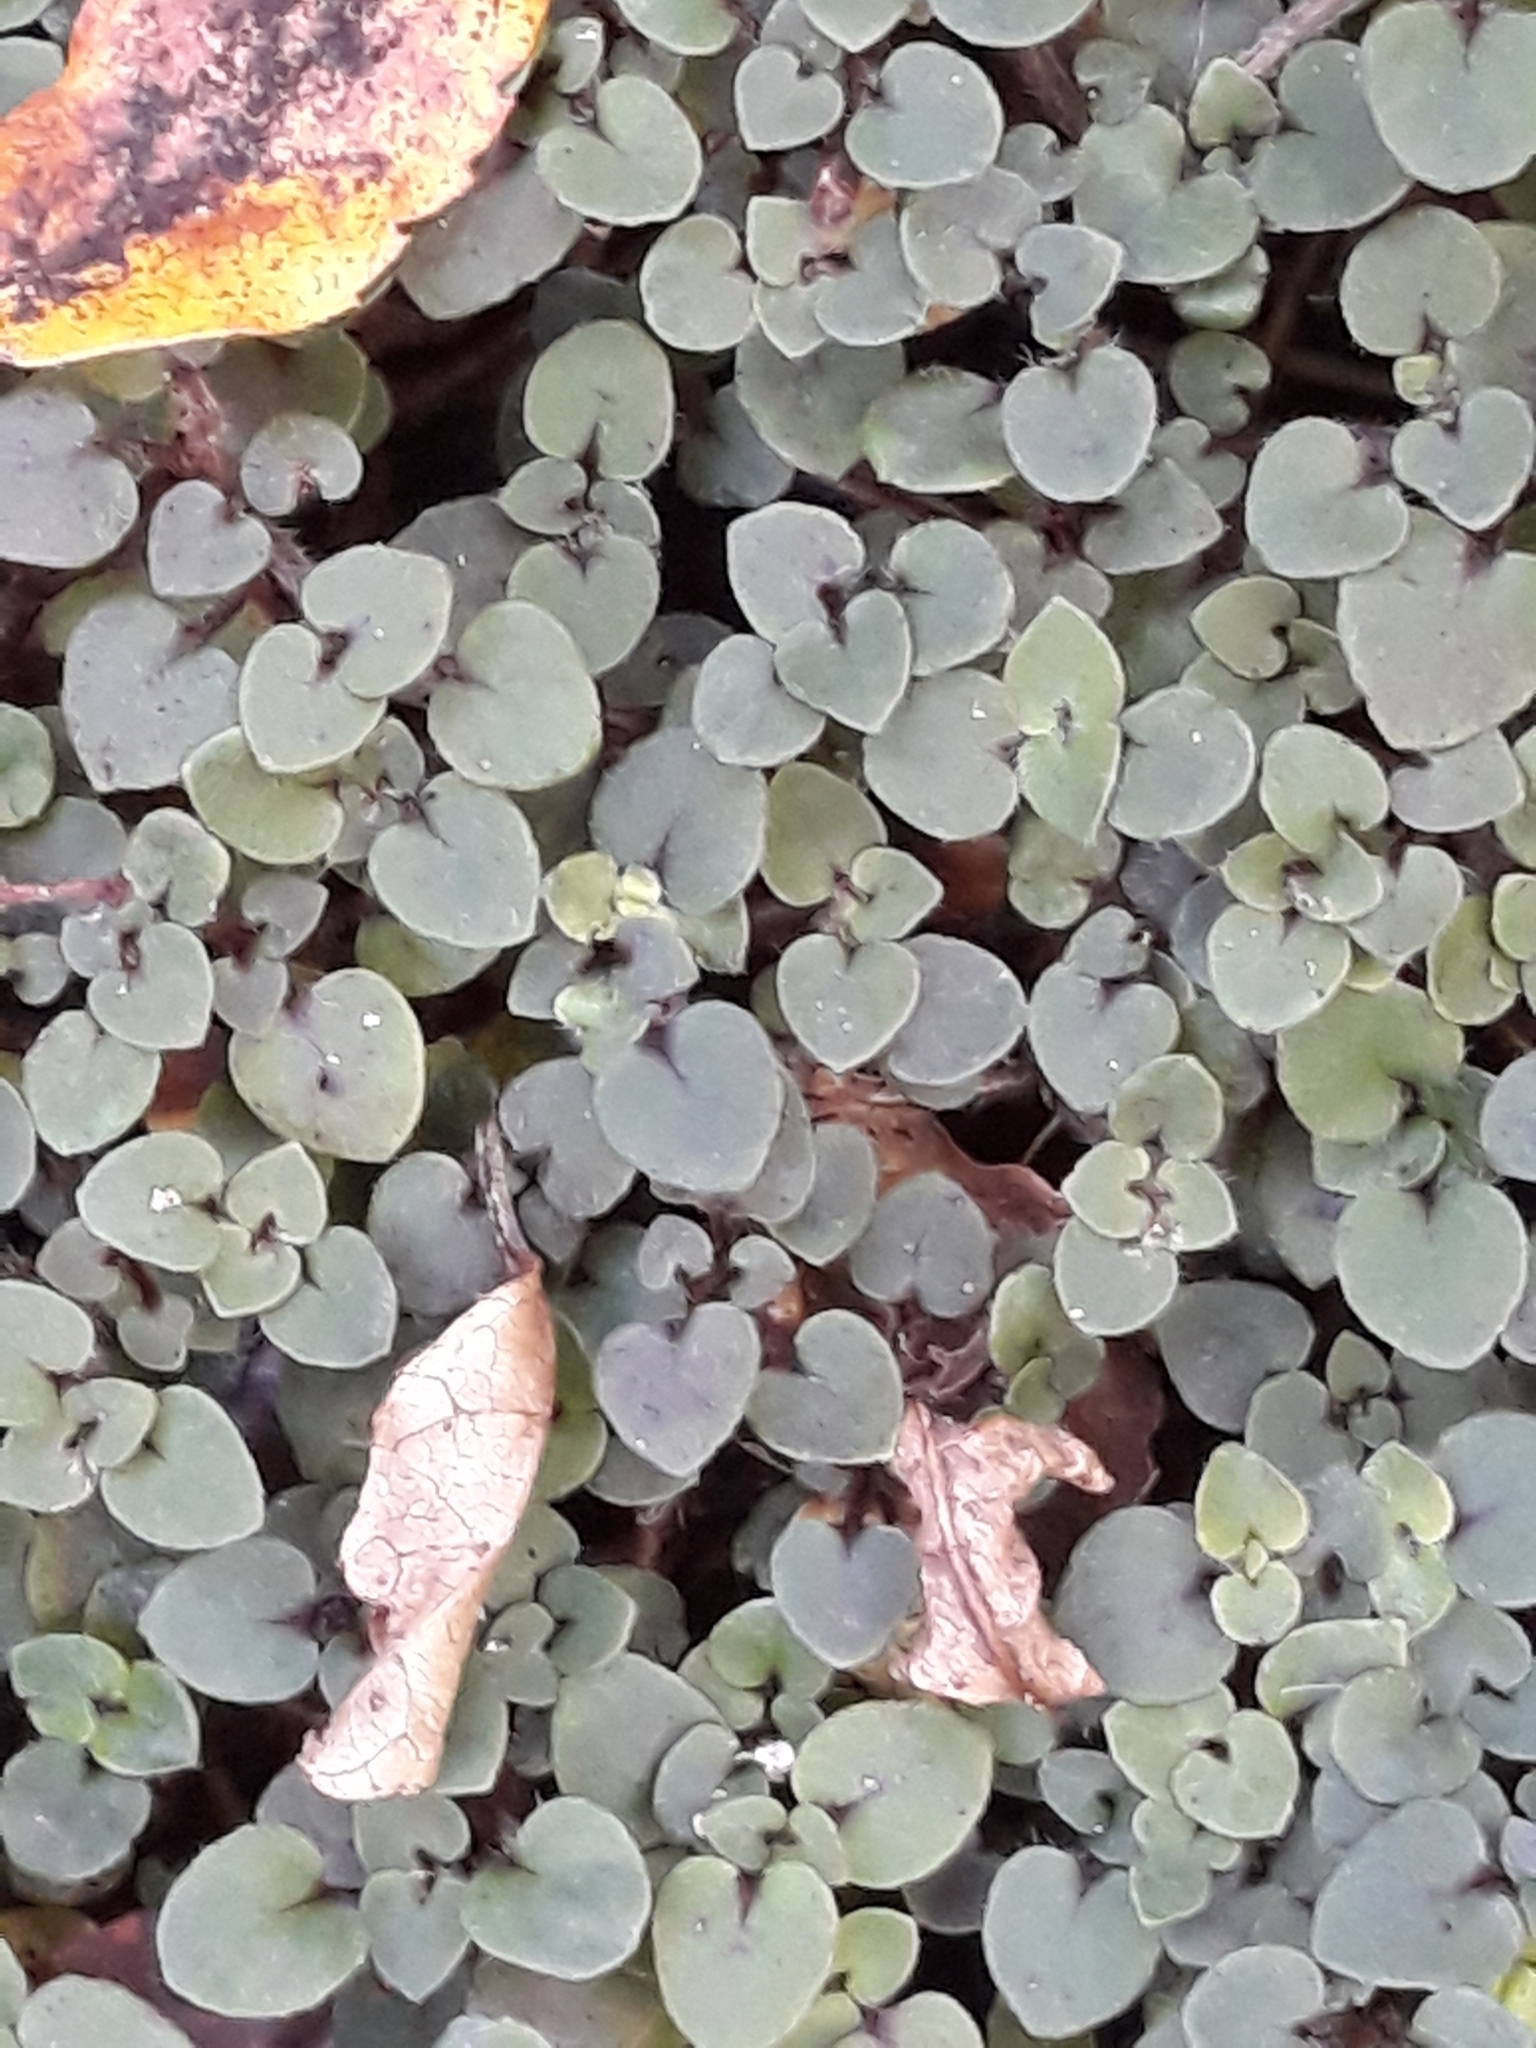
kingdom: Plantae
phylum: Tracheophyta
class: Magnoliopsida
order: Gentianales
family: Rubiaceae
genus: Nertera
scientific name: Nertera villosa
